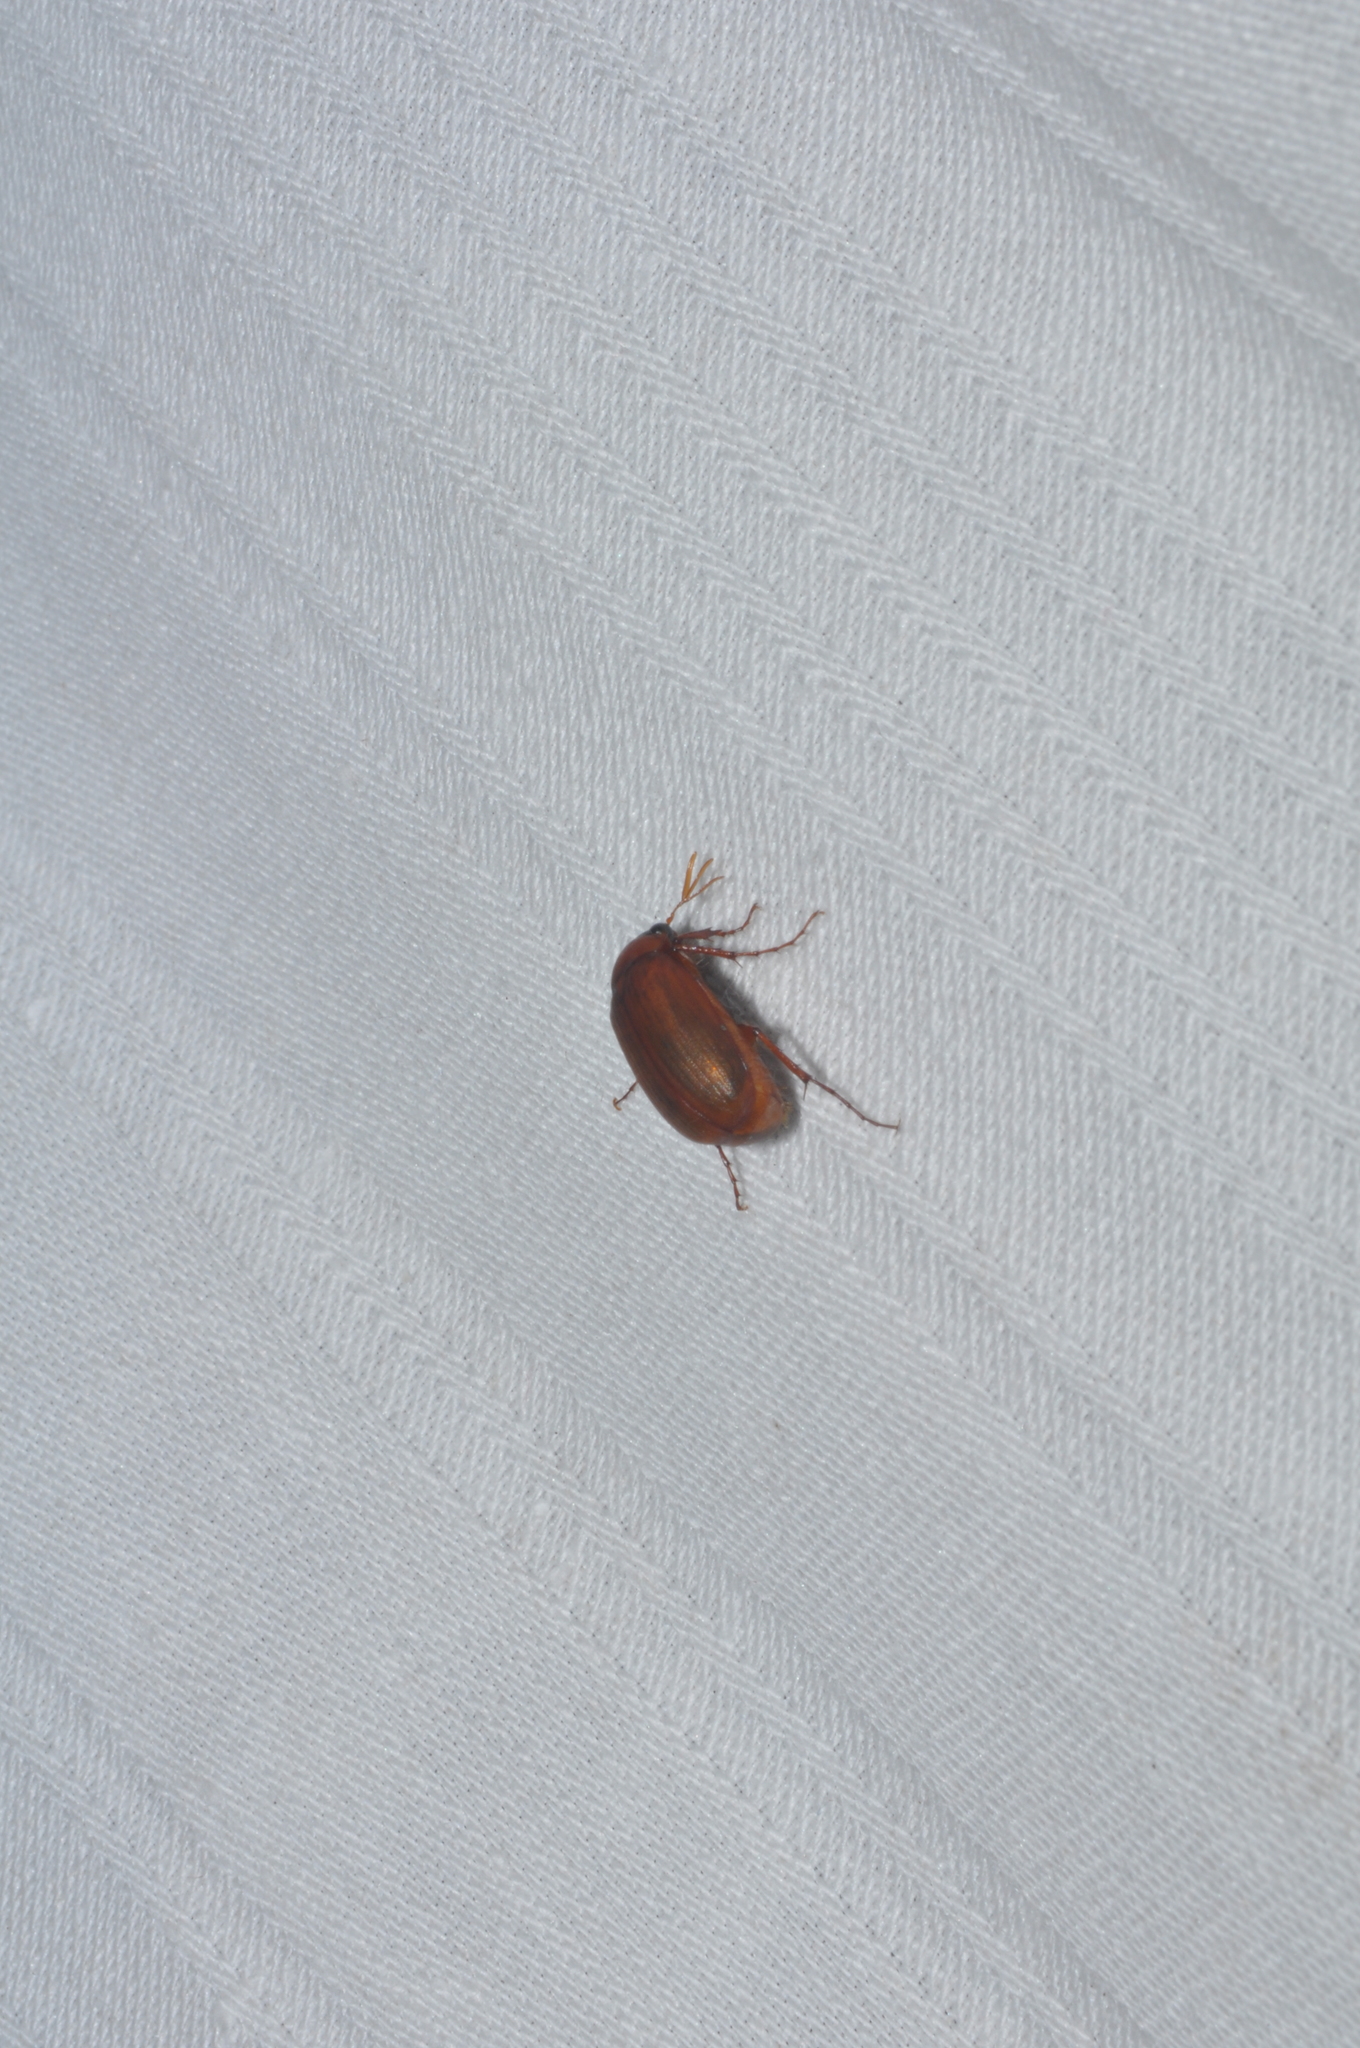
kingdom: Animalia
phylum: Arthropoda
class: Insecta
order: Coleoptera
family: Scarabaeidae
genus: Serica
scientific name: Serica brunnea
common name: Brown chafer
